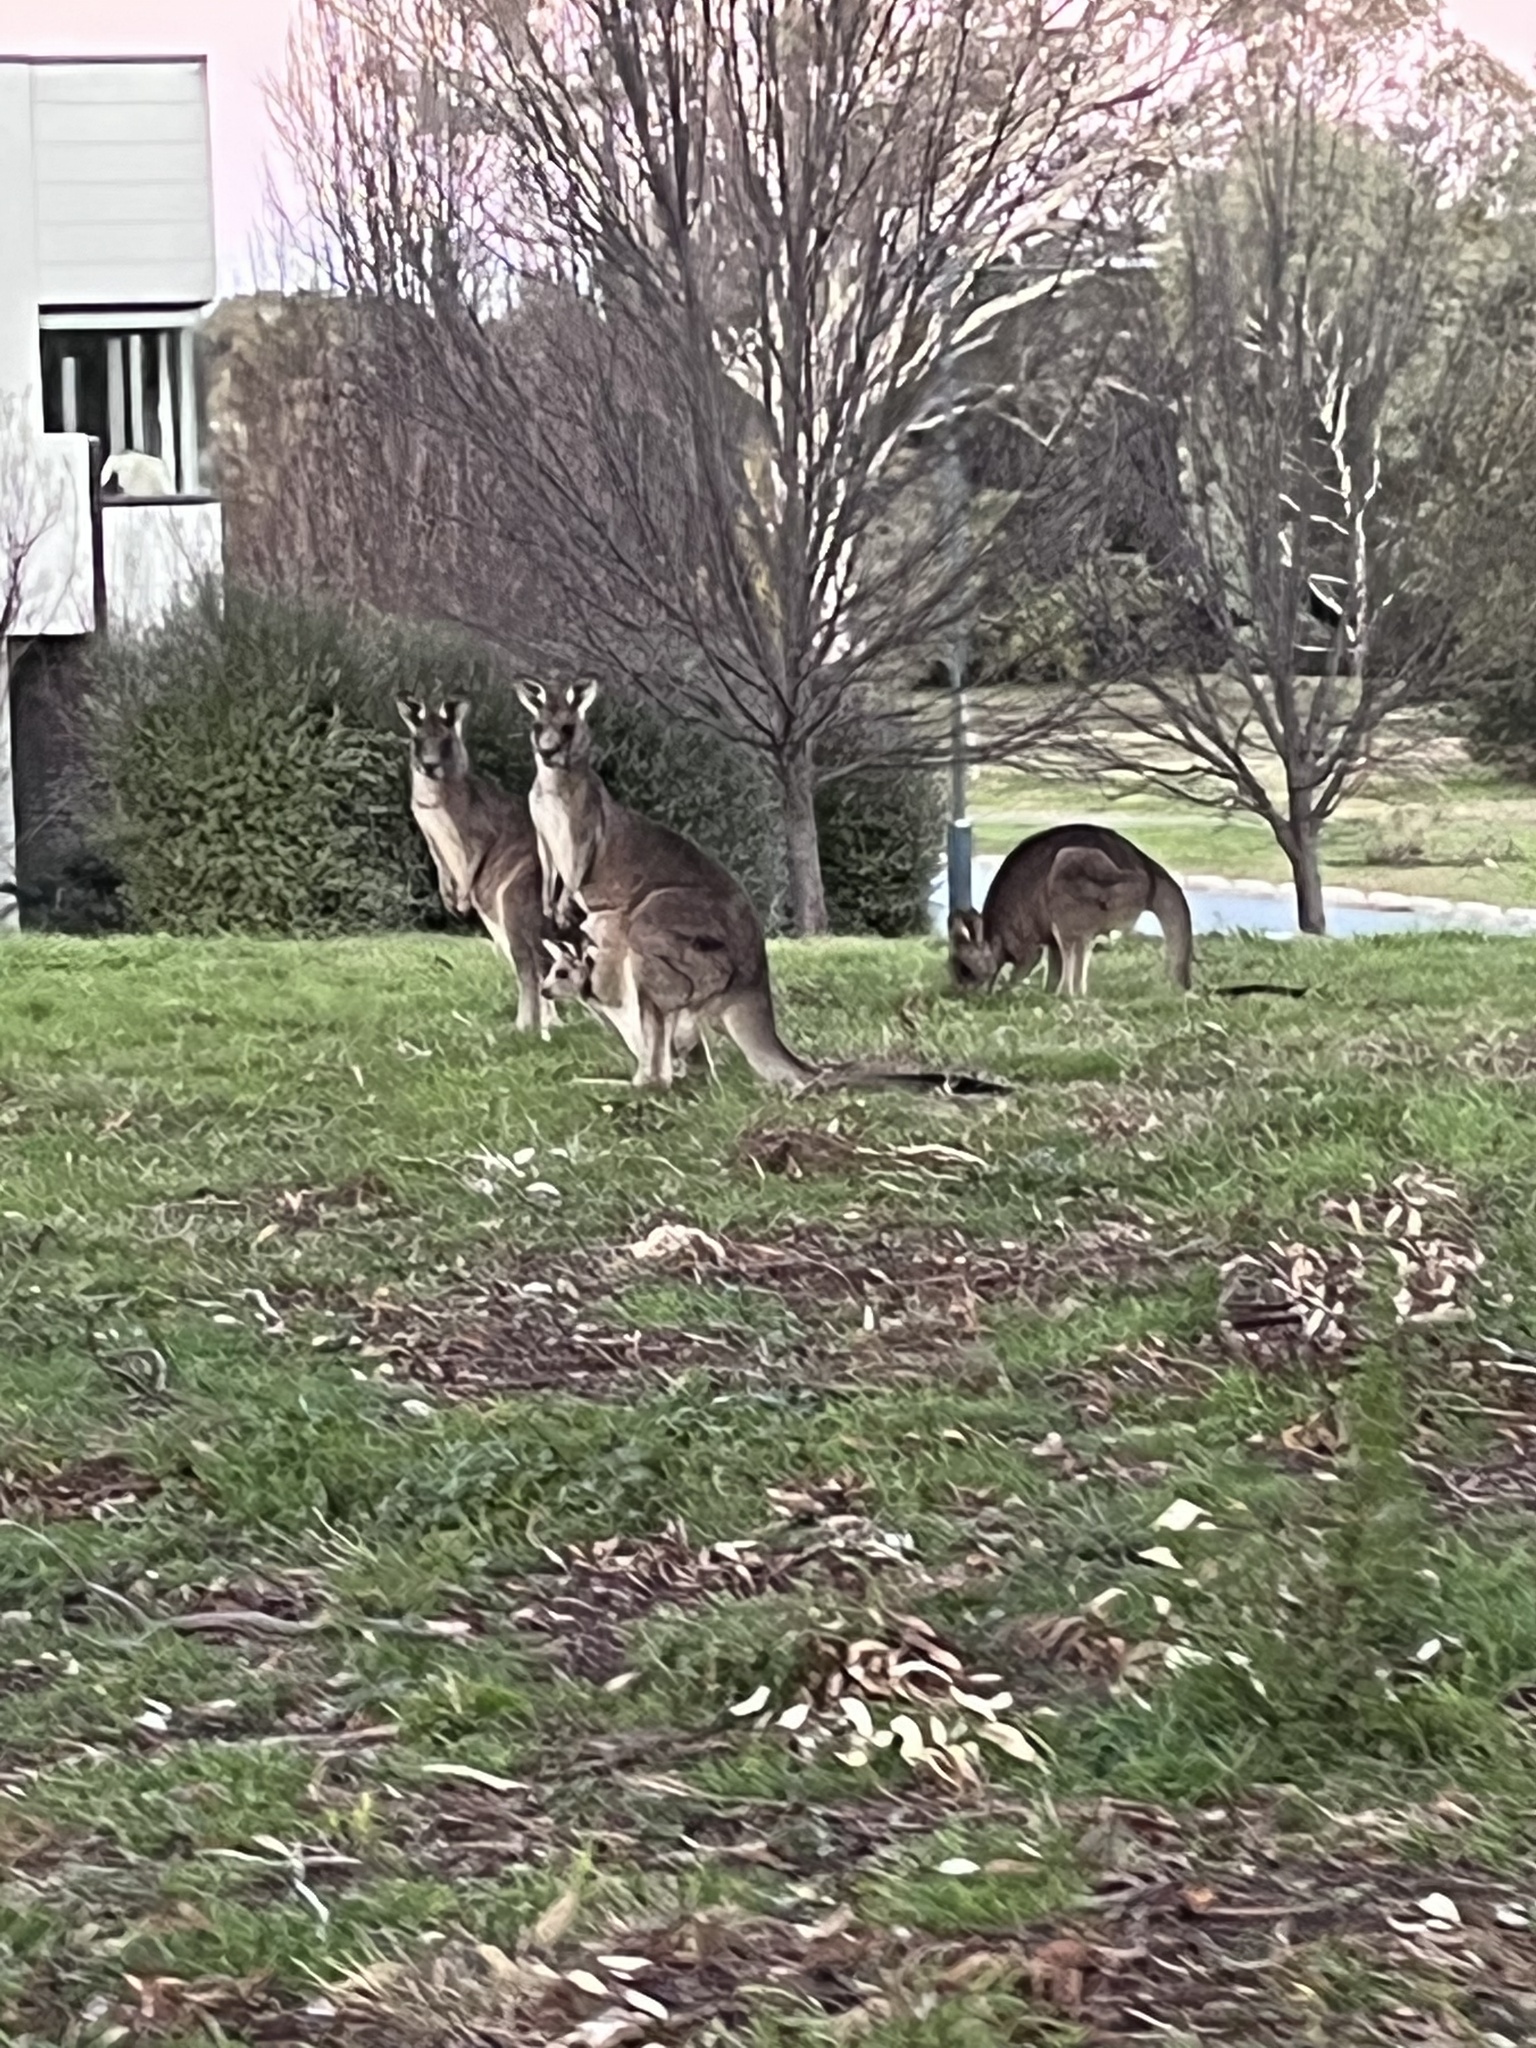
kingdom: Animalia
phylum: Chordata
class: Mammalia
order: Diprotodontia
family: Macropodidae
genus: Macropus
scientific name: Macropus giganteus
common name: Eastern grey kangaroo
